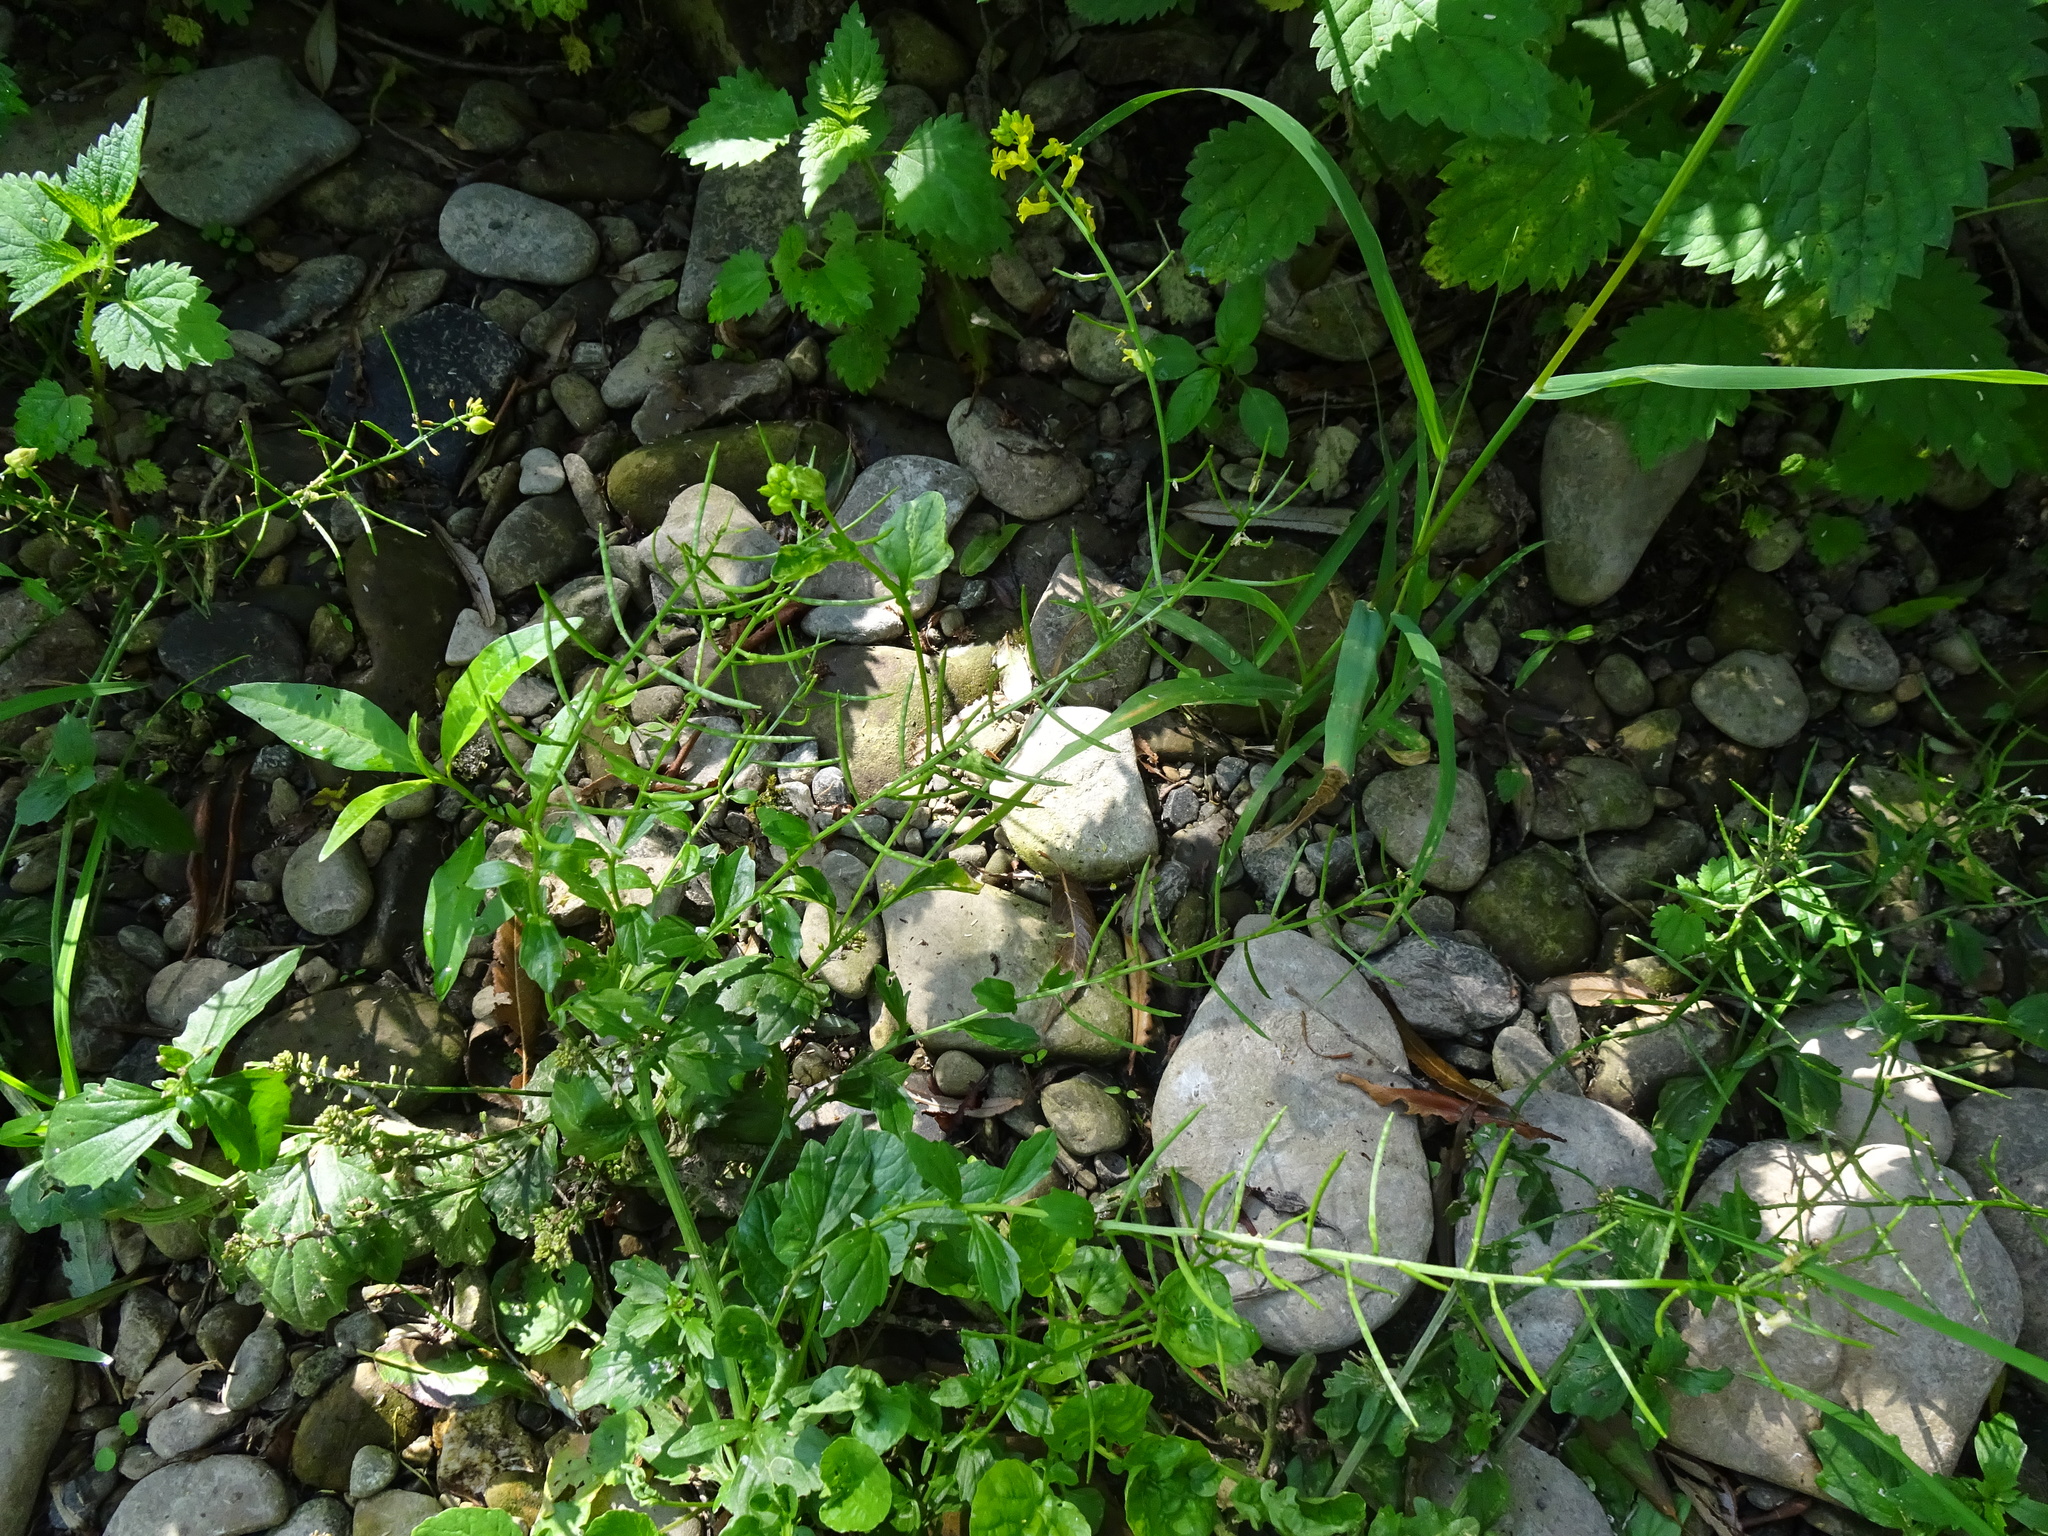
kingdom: Plantae
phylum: Tracheophyta
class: Magnoliopsida
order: Brassicales
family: Brassicaceae
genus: Barbarea
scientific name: Barbarea vulgaris
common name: Cressy-greens
